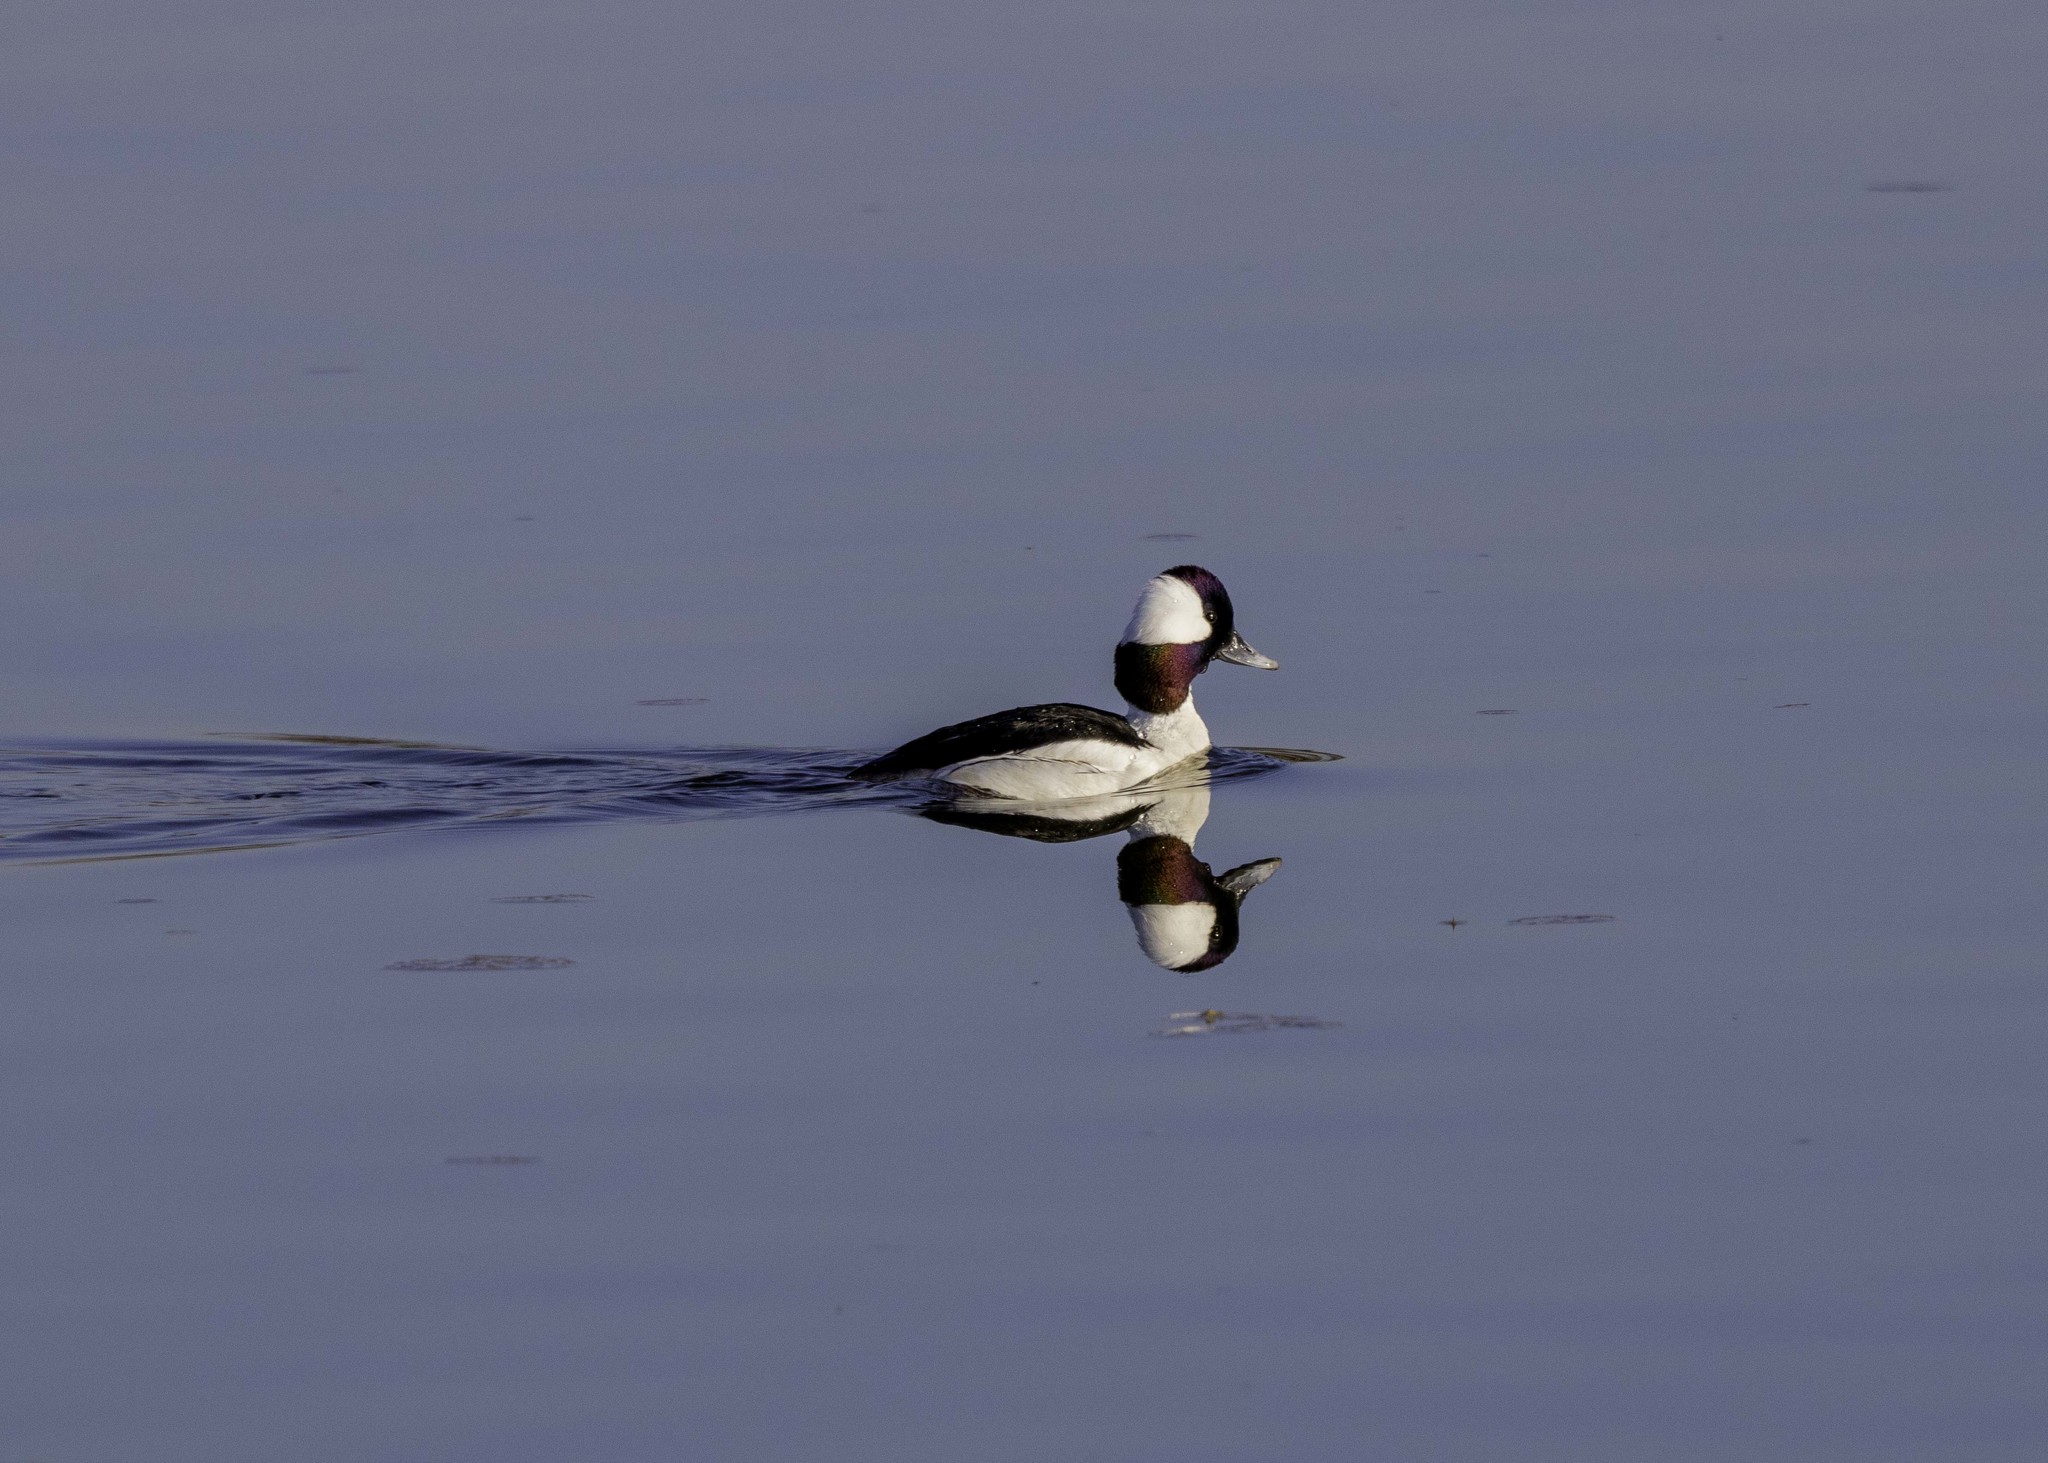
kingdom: Animalia
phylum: Chordata
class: Aves
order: Anseriformes
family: Anatidae
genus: Bucephala
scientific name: Bucephala albeola
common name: Bufflehead
